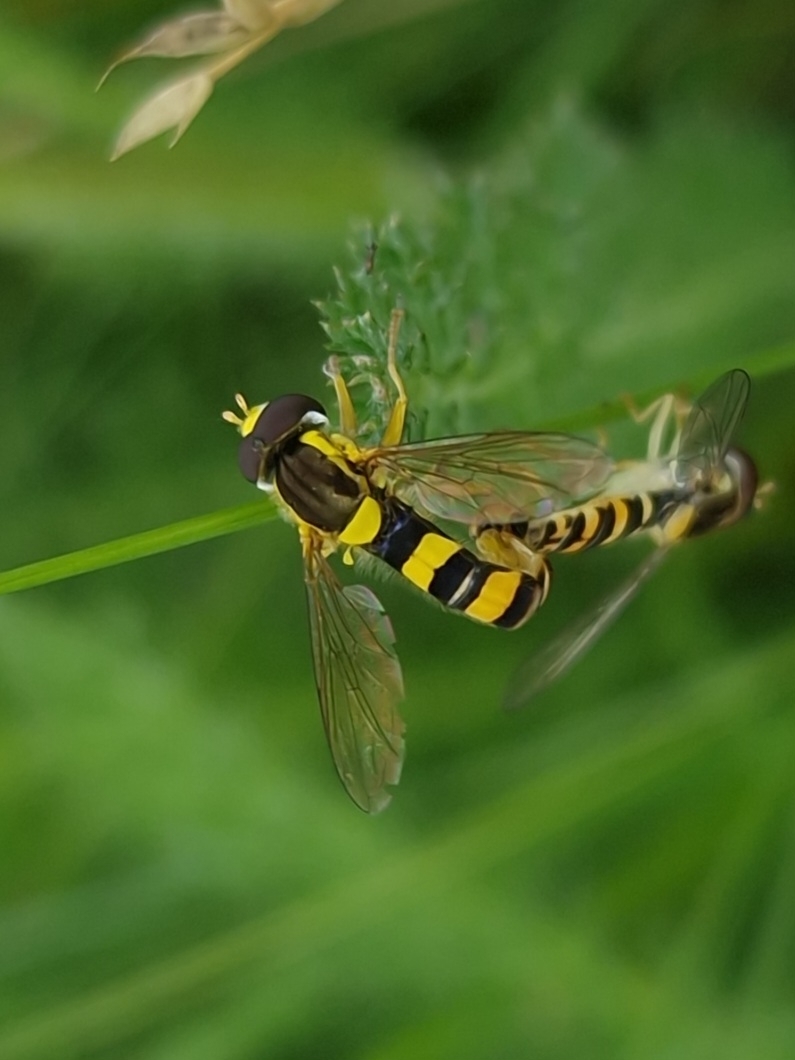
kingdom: Animalia
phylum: Arthropoda
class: Insecta
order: Diptera
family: Syrphidae
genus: Sphaerophoria
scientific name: Sphaerophoria scripta
